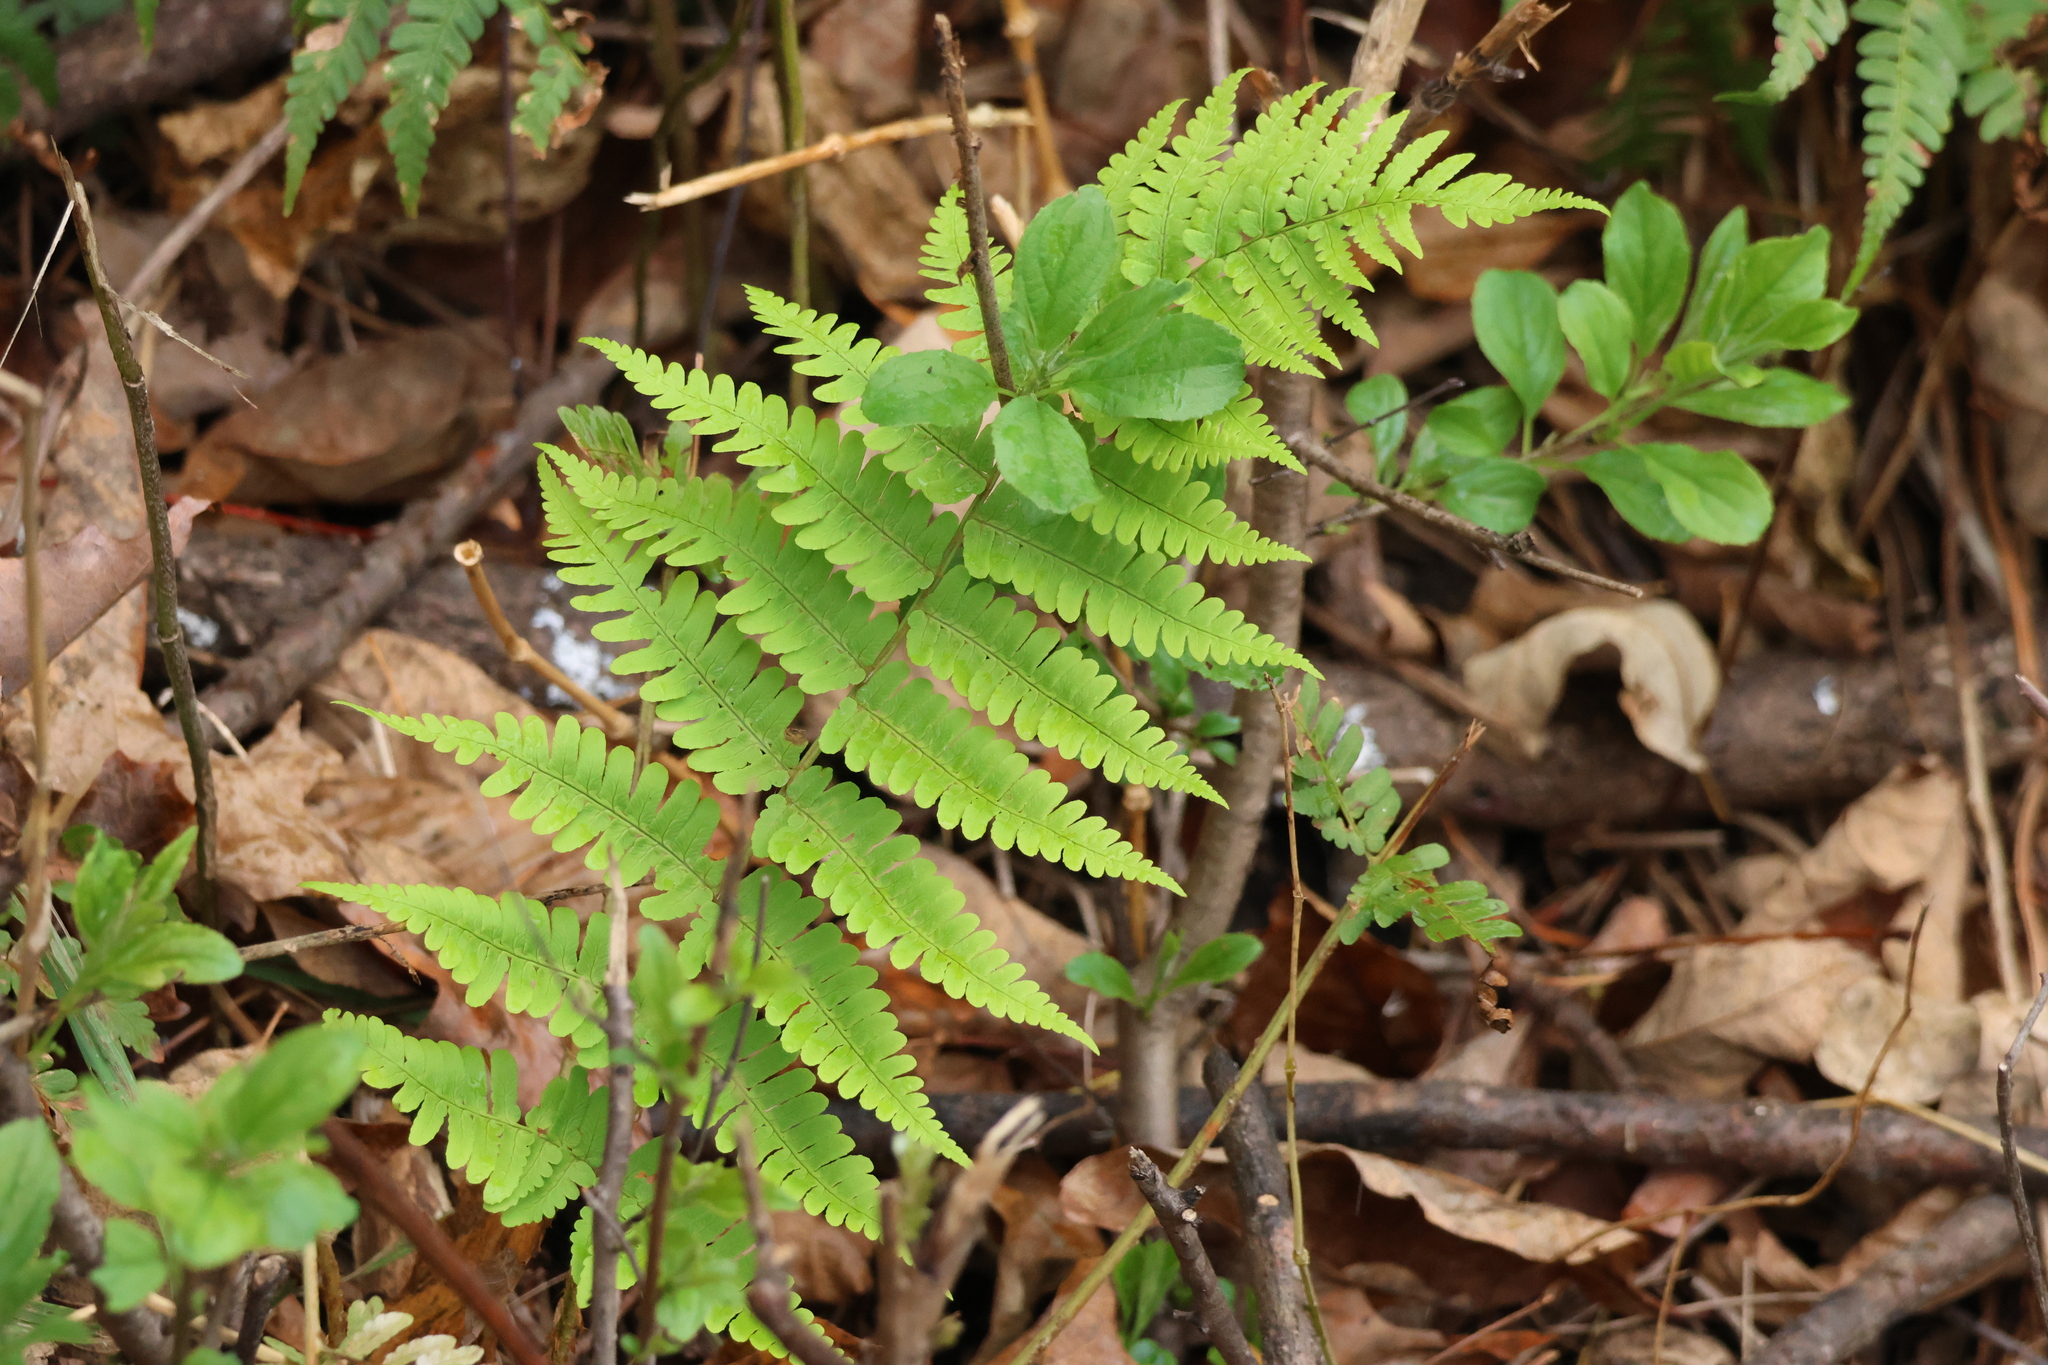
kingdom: Plantae
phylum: Tracheophyta
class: Polypodiopsida
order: Polypodiales
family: Dryopteridaceae
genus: Dryopteris
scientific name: Dryopteris marginalis
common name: Marginal wood fern
